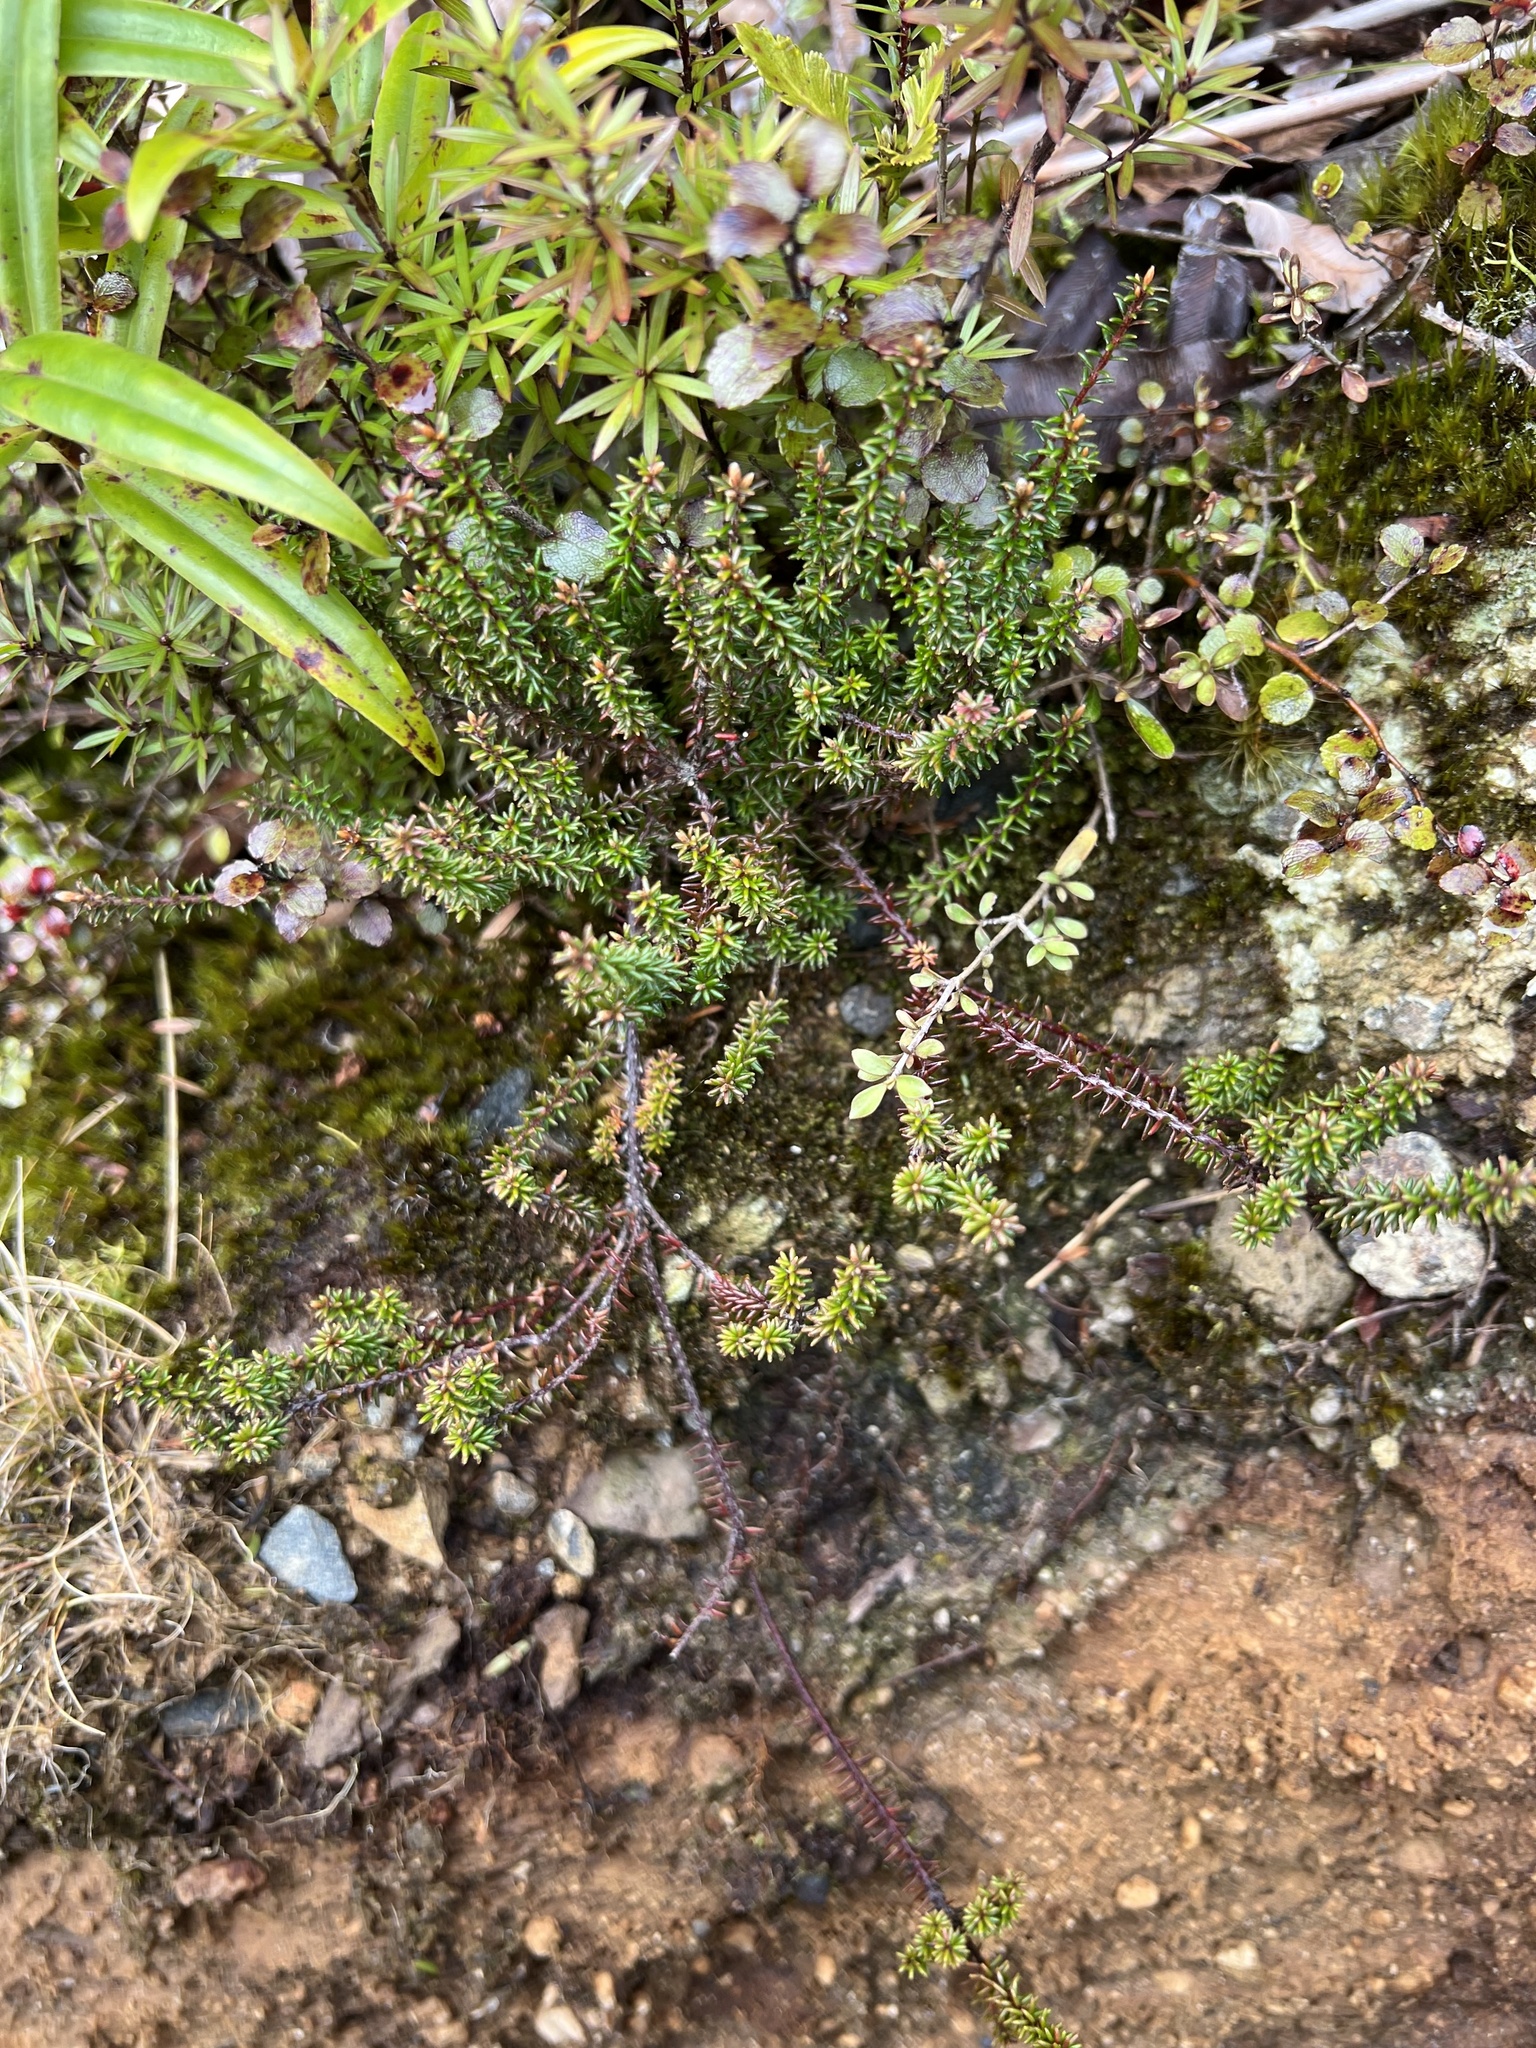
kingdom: Plantae
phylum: Tracheophyta
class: Magnoliopsida
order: Ericales
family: Ericaceae
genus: Androstoma
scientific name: Androstoma empetrifolia
